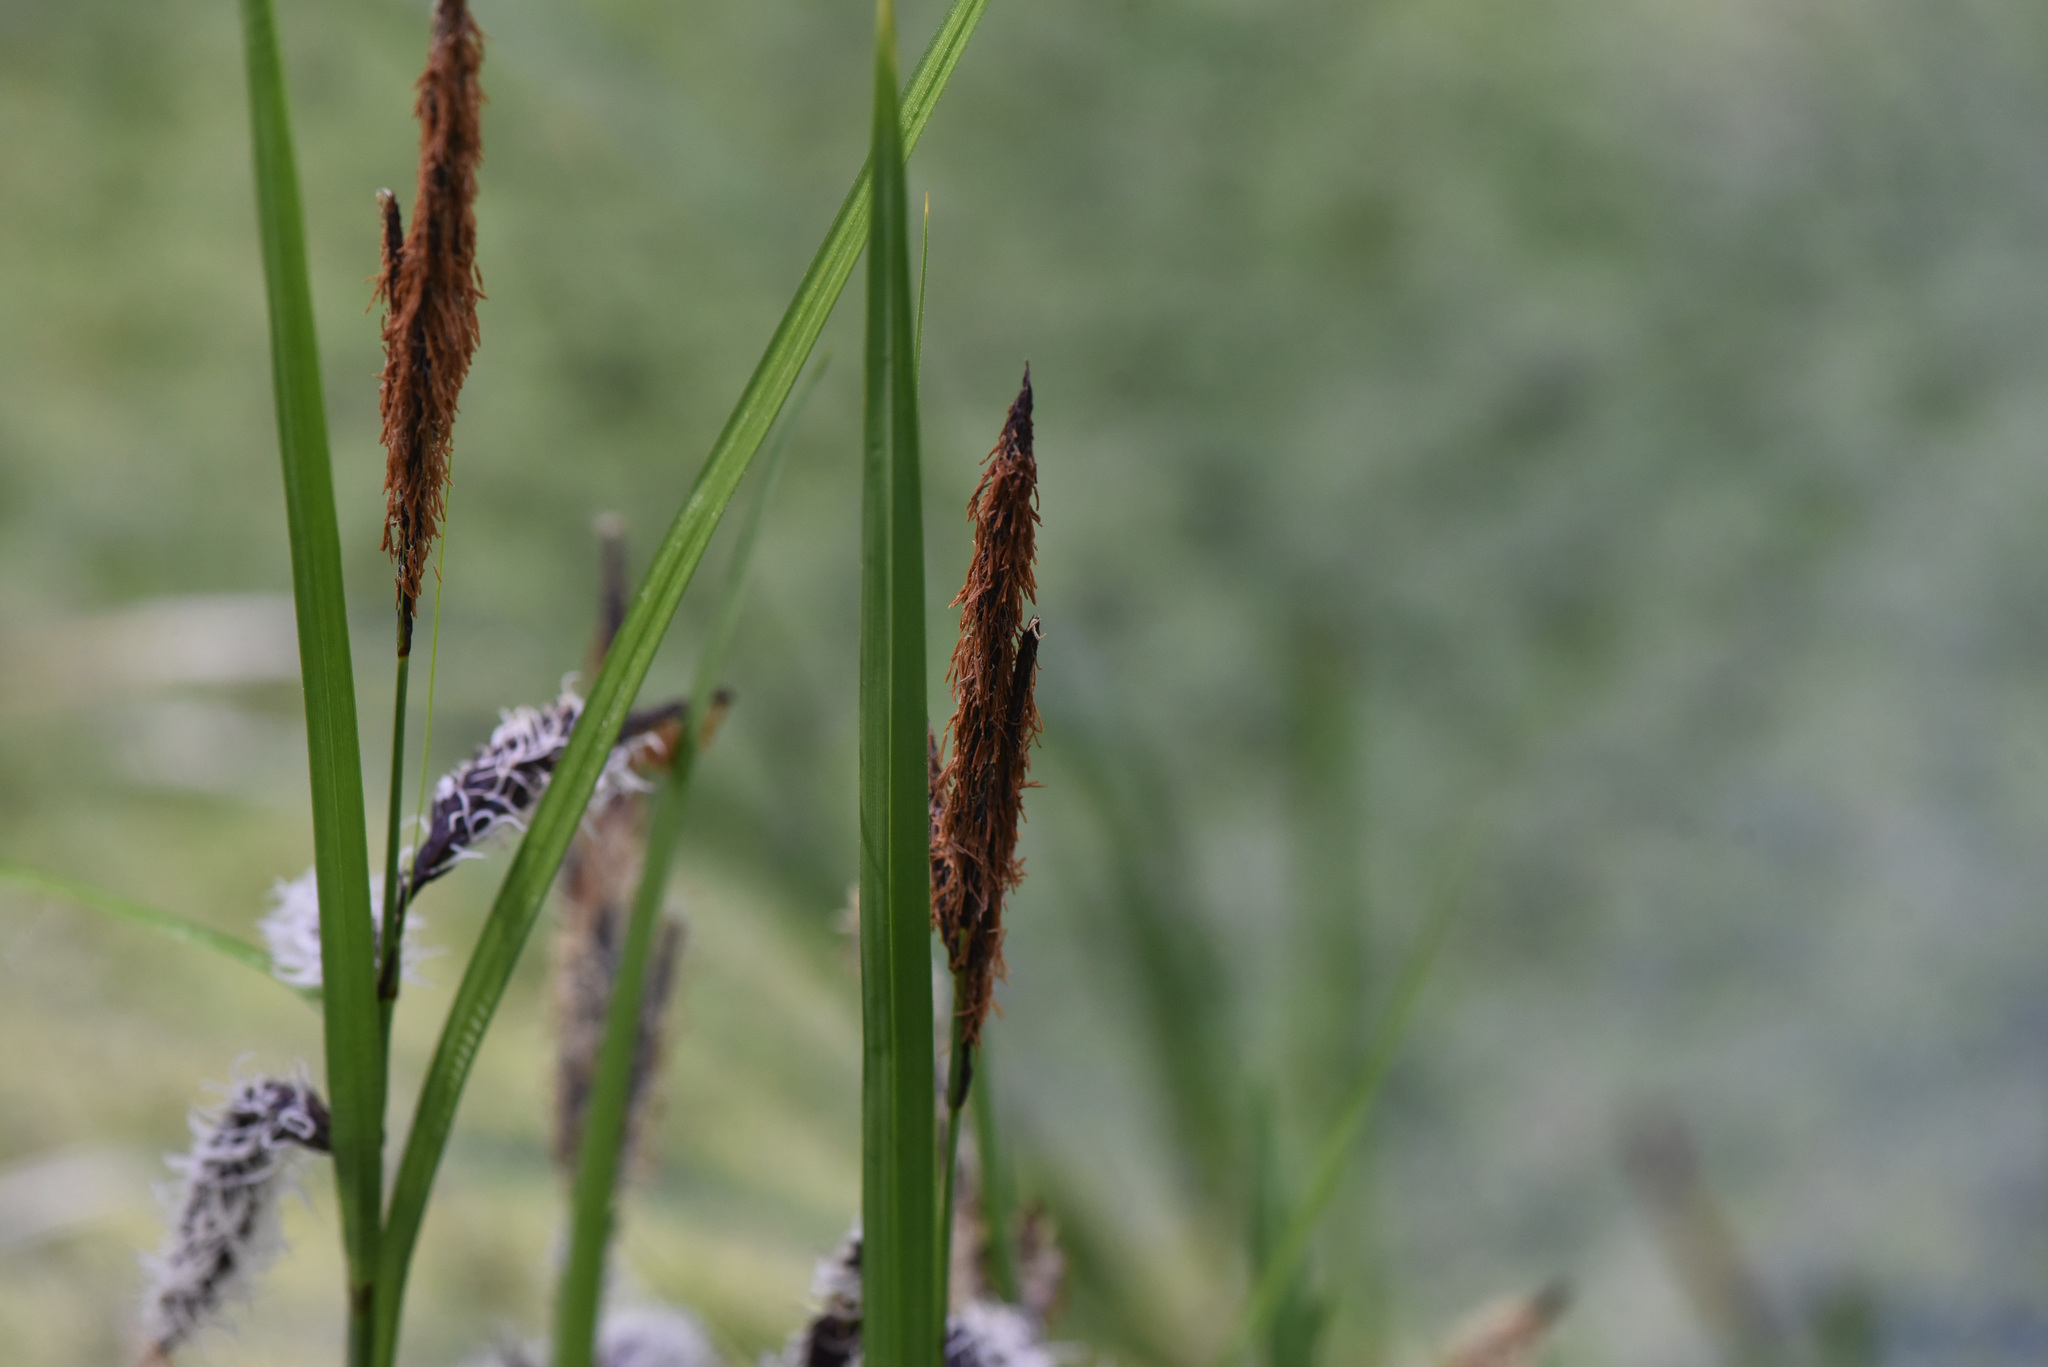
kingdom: Plantae
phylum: Tracheophyta
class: Liliopsida
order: Poales
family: Cyperaceae
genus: Carex
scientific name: Carex obnupta
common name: Slough sedge
